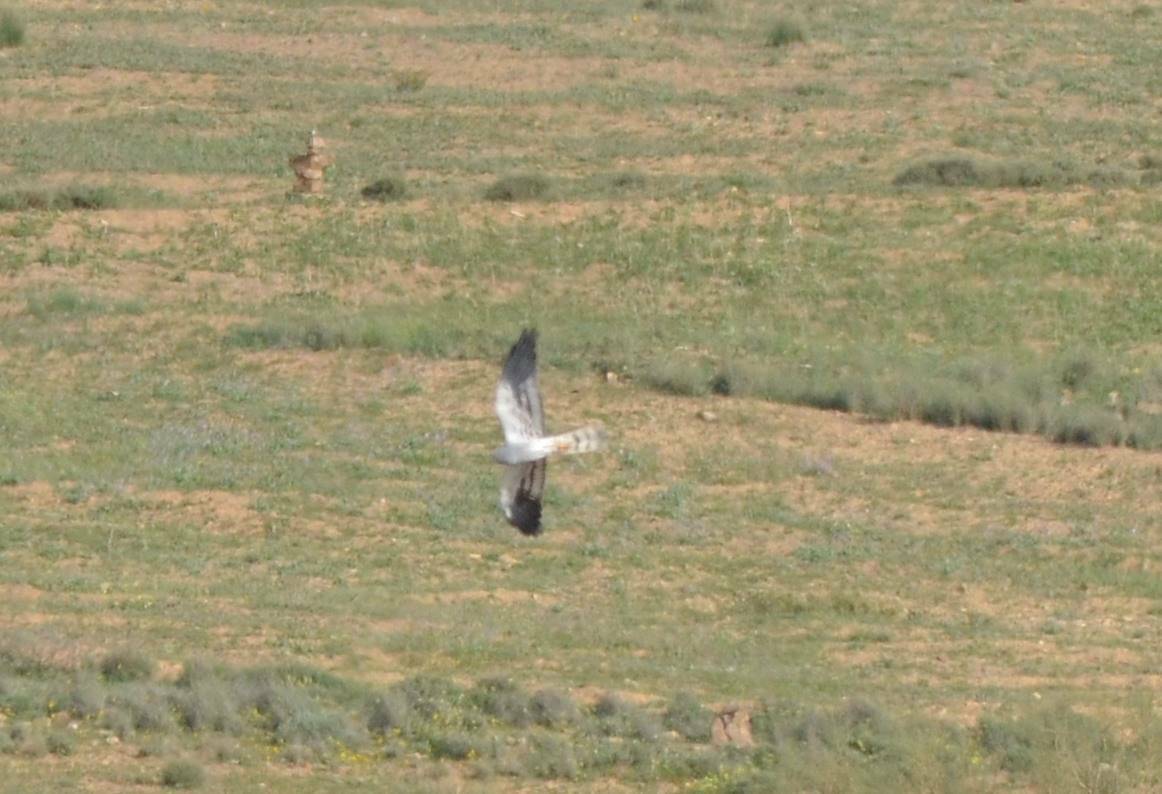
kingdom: Animalia
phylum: Chordata
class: Aves
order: Accipitriformes
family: Accipitridae
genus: Circus
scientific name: Circus pygargus
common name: Montagu's harrier
